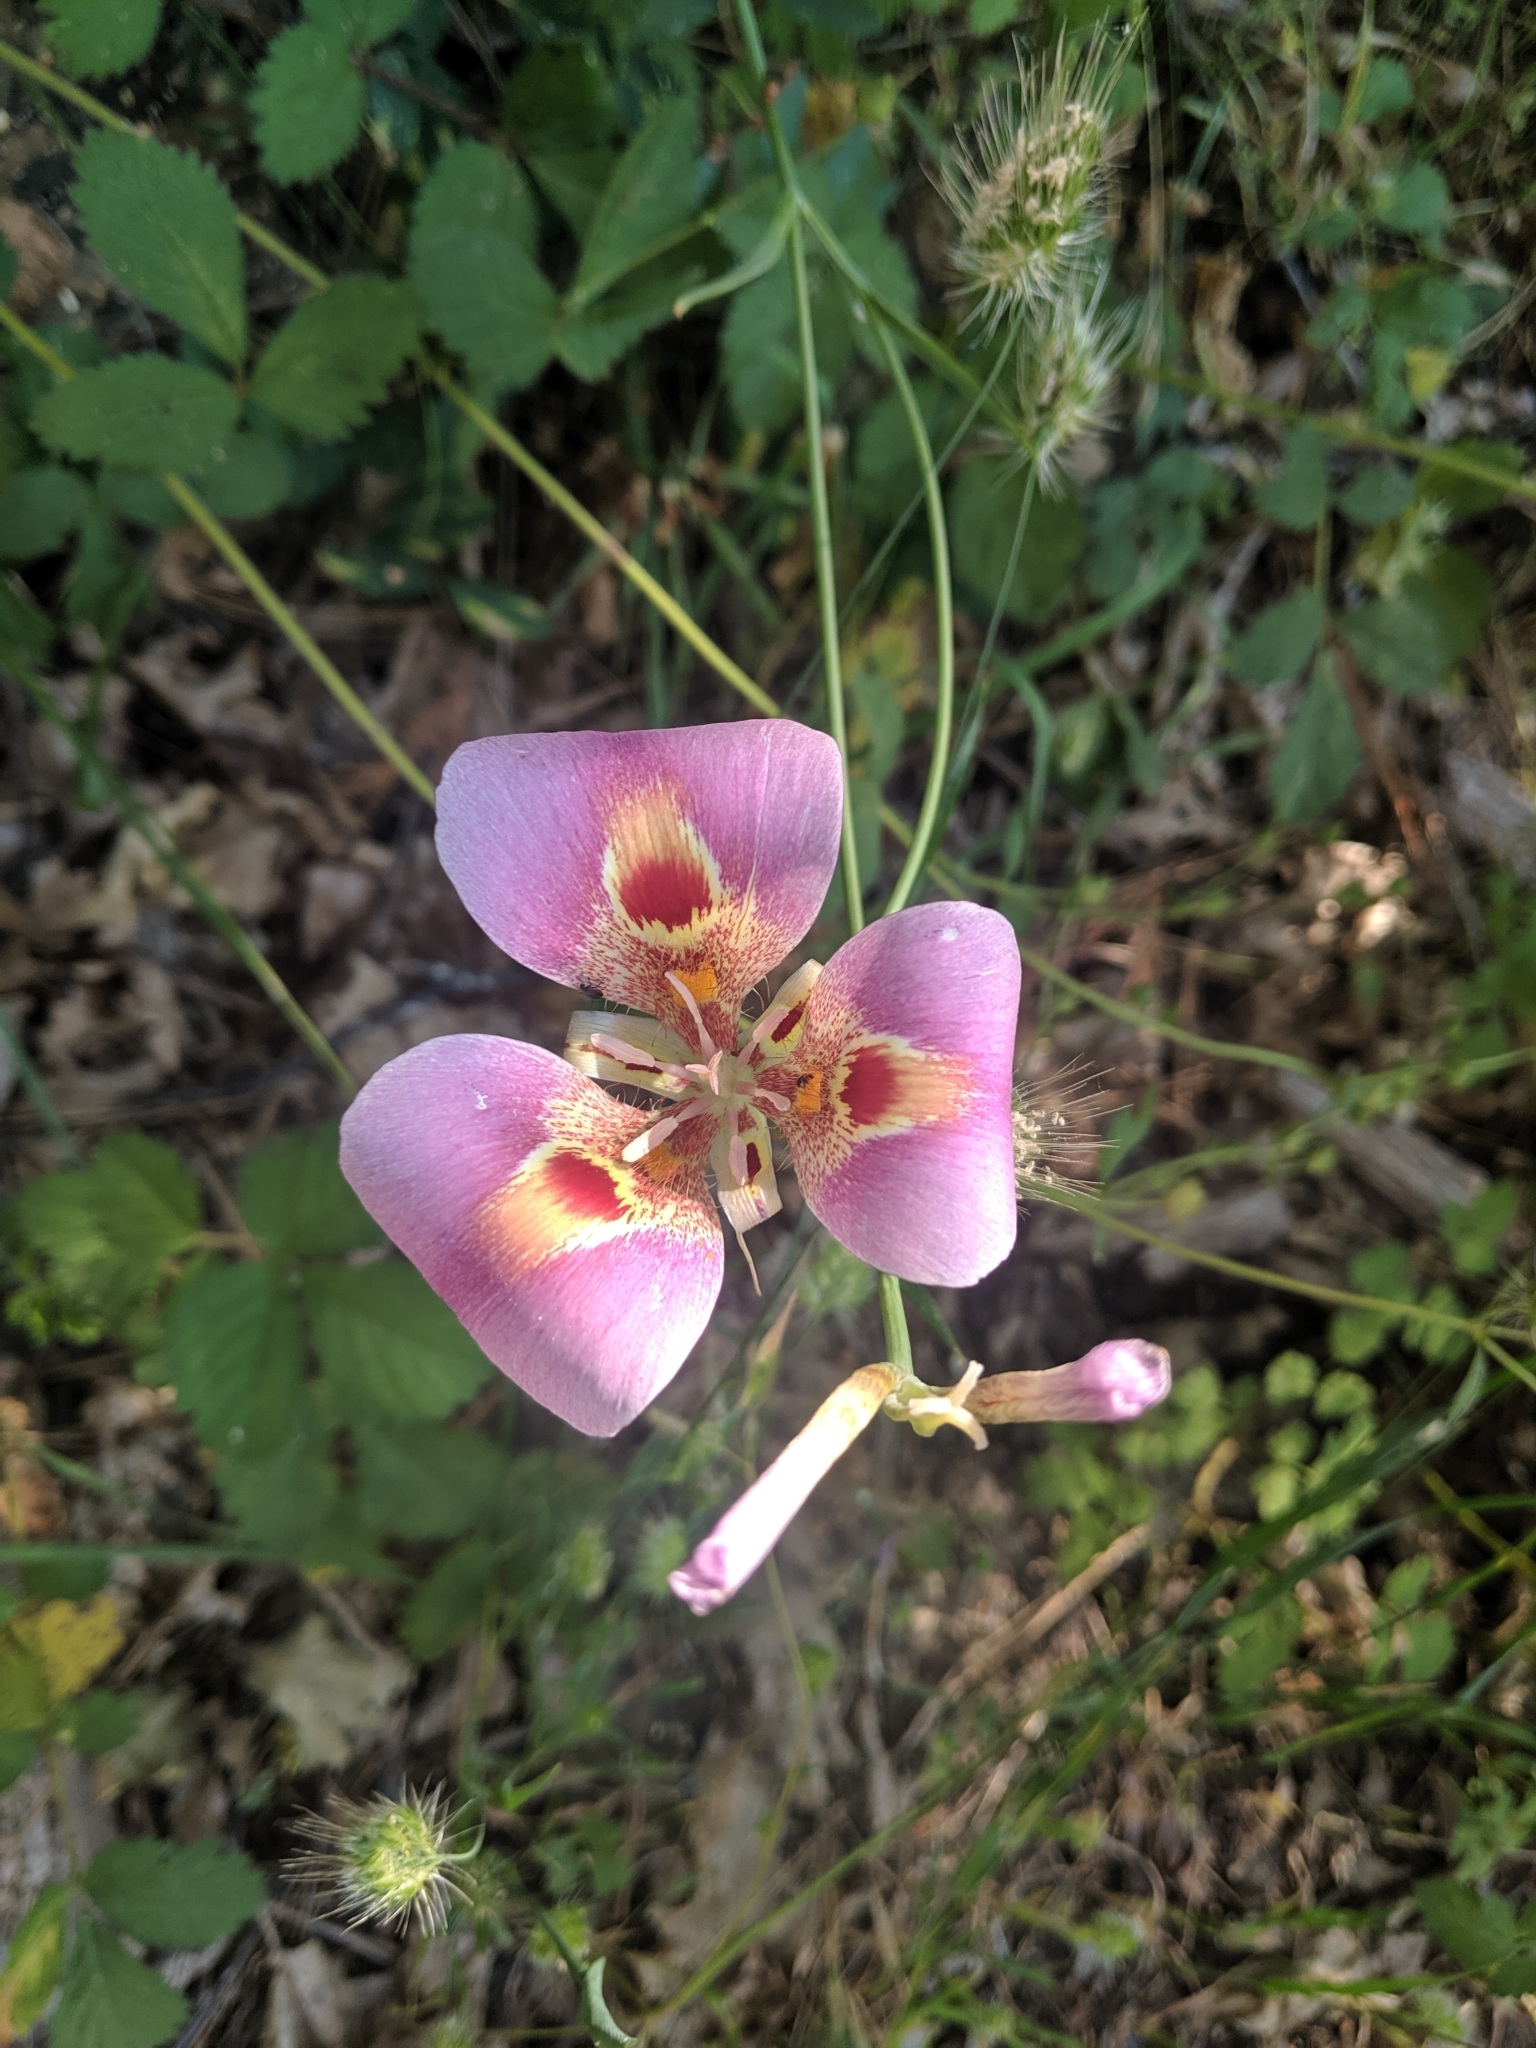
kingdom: Plantae
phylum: Tracheophyta
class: Liliopsida
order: Liliales
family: Liliaceae
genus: Calochortus
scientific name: Calochortus venustus
